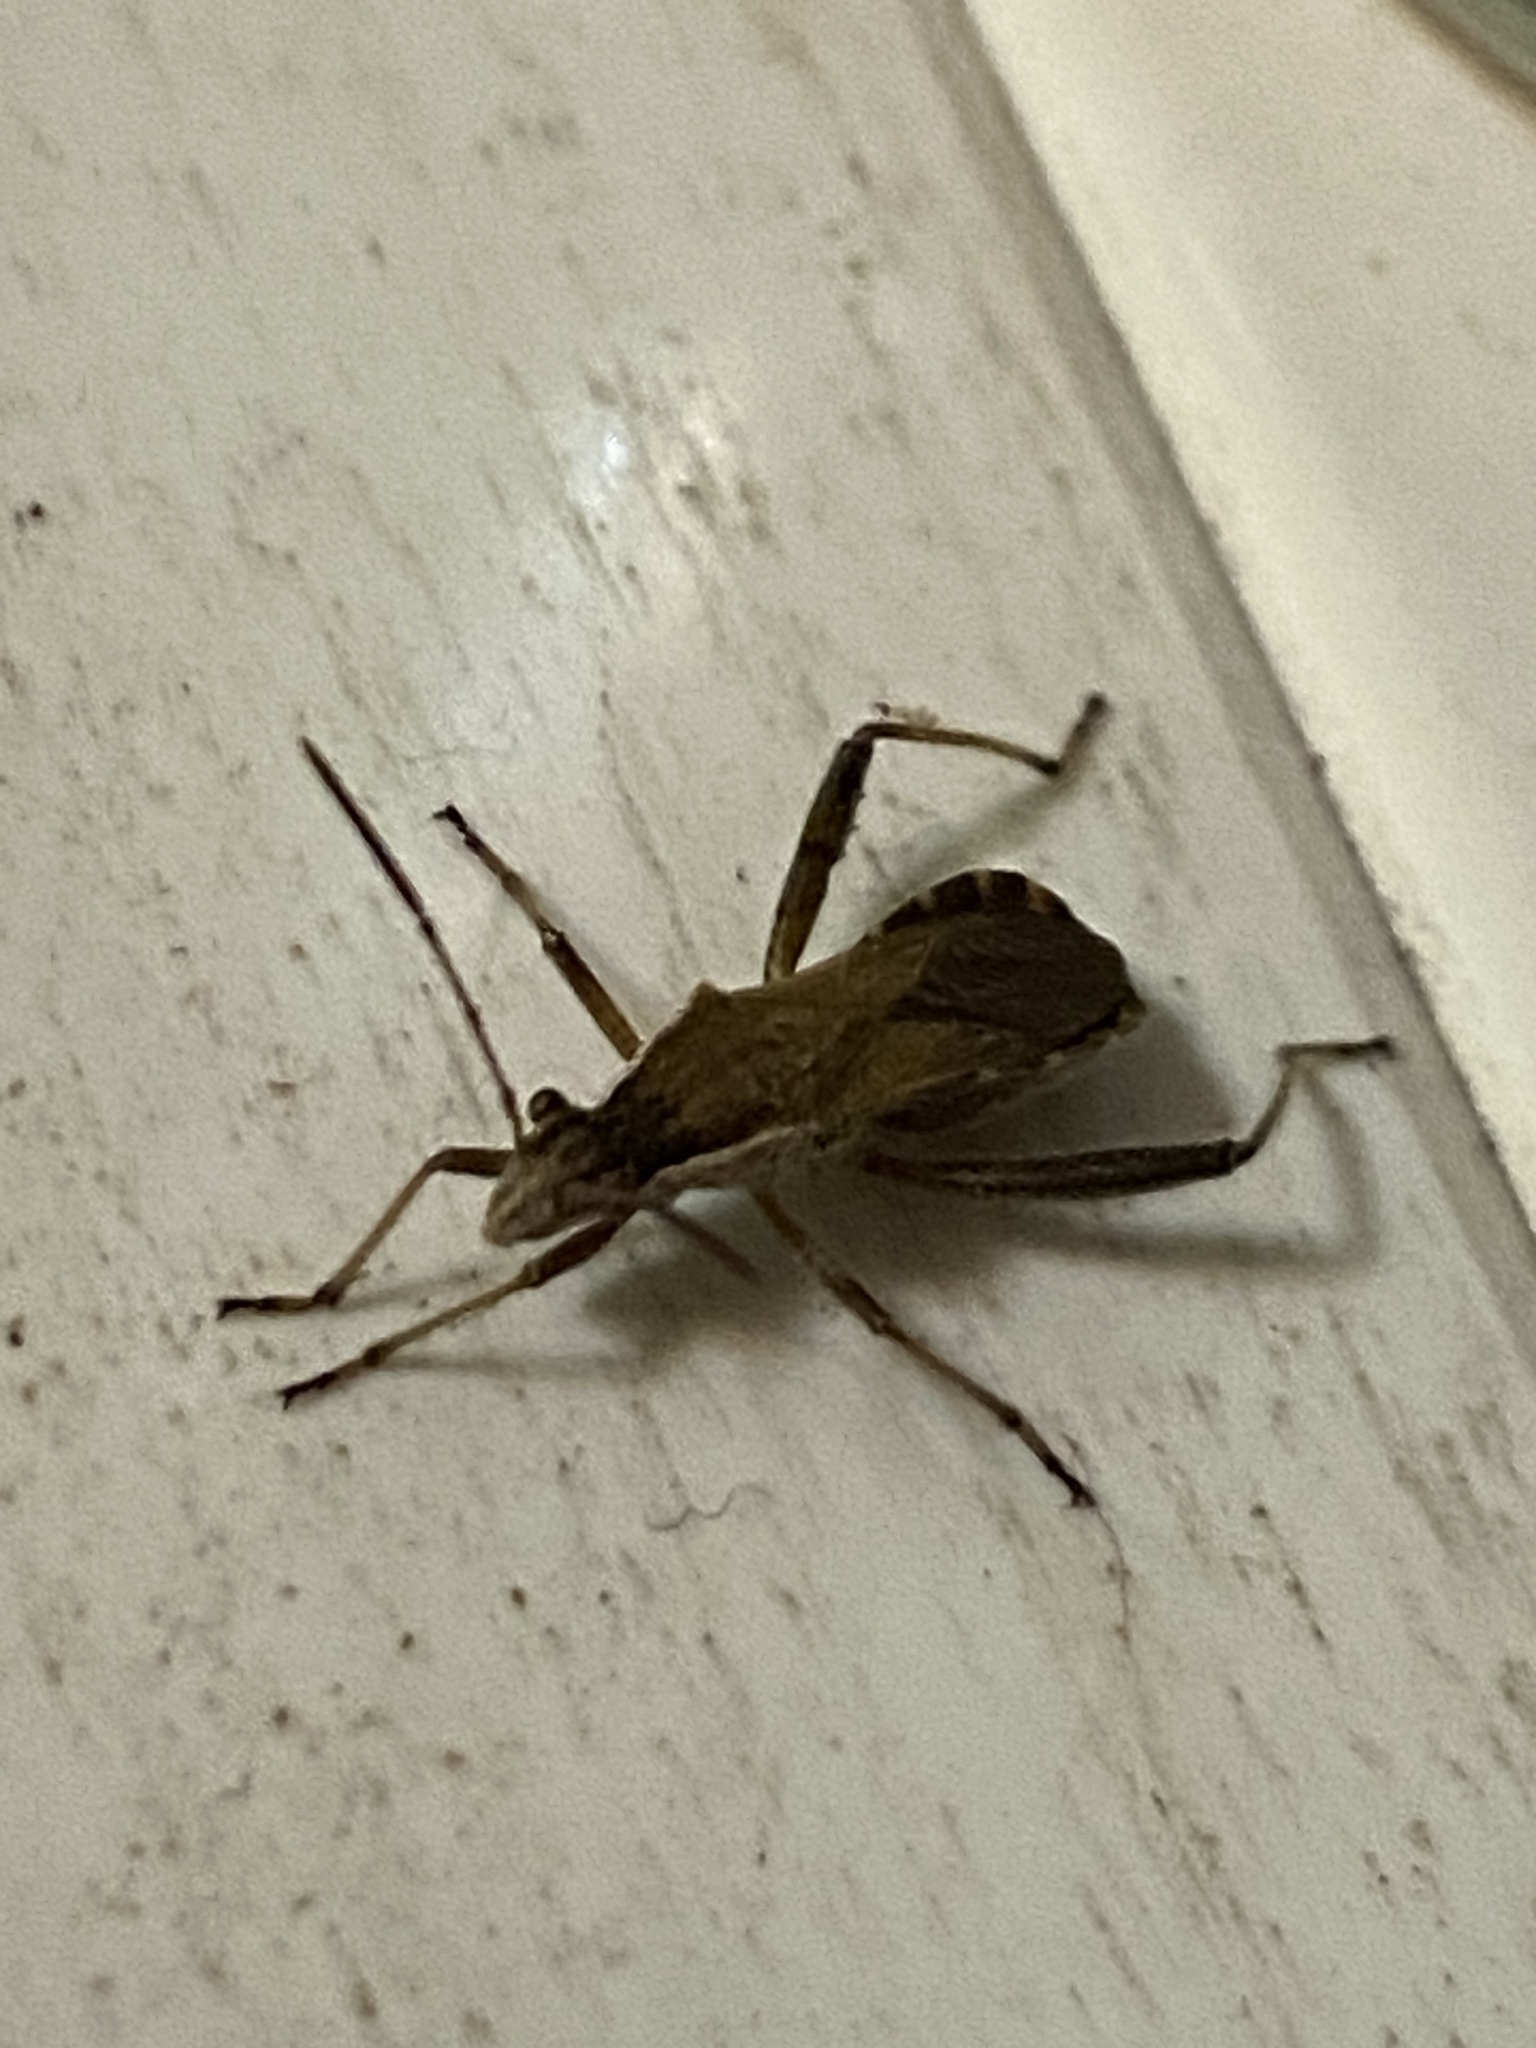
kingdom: Animalia
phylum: Arthropoda
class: Insecta
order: Hemiptera
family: Alydidae
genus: Alydus
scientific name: Alydus pilosulus
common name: Broad-headed bug
